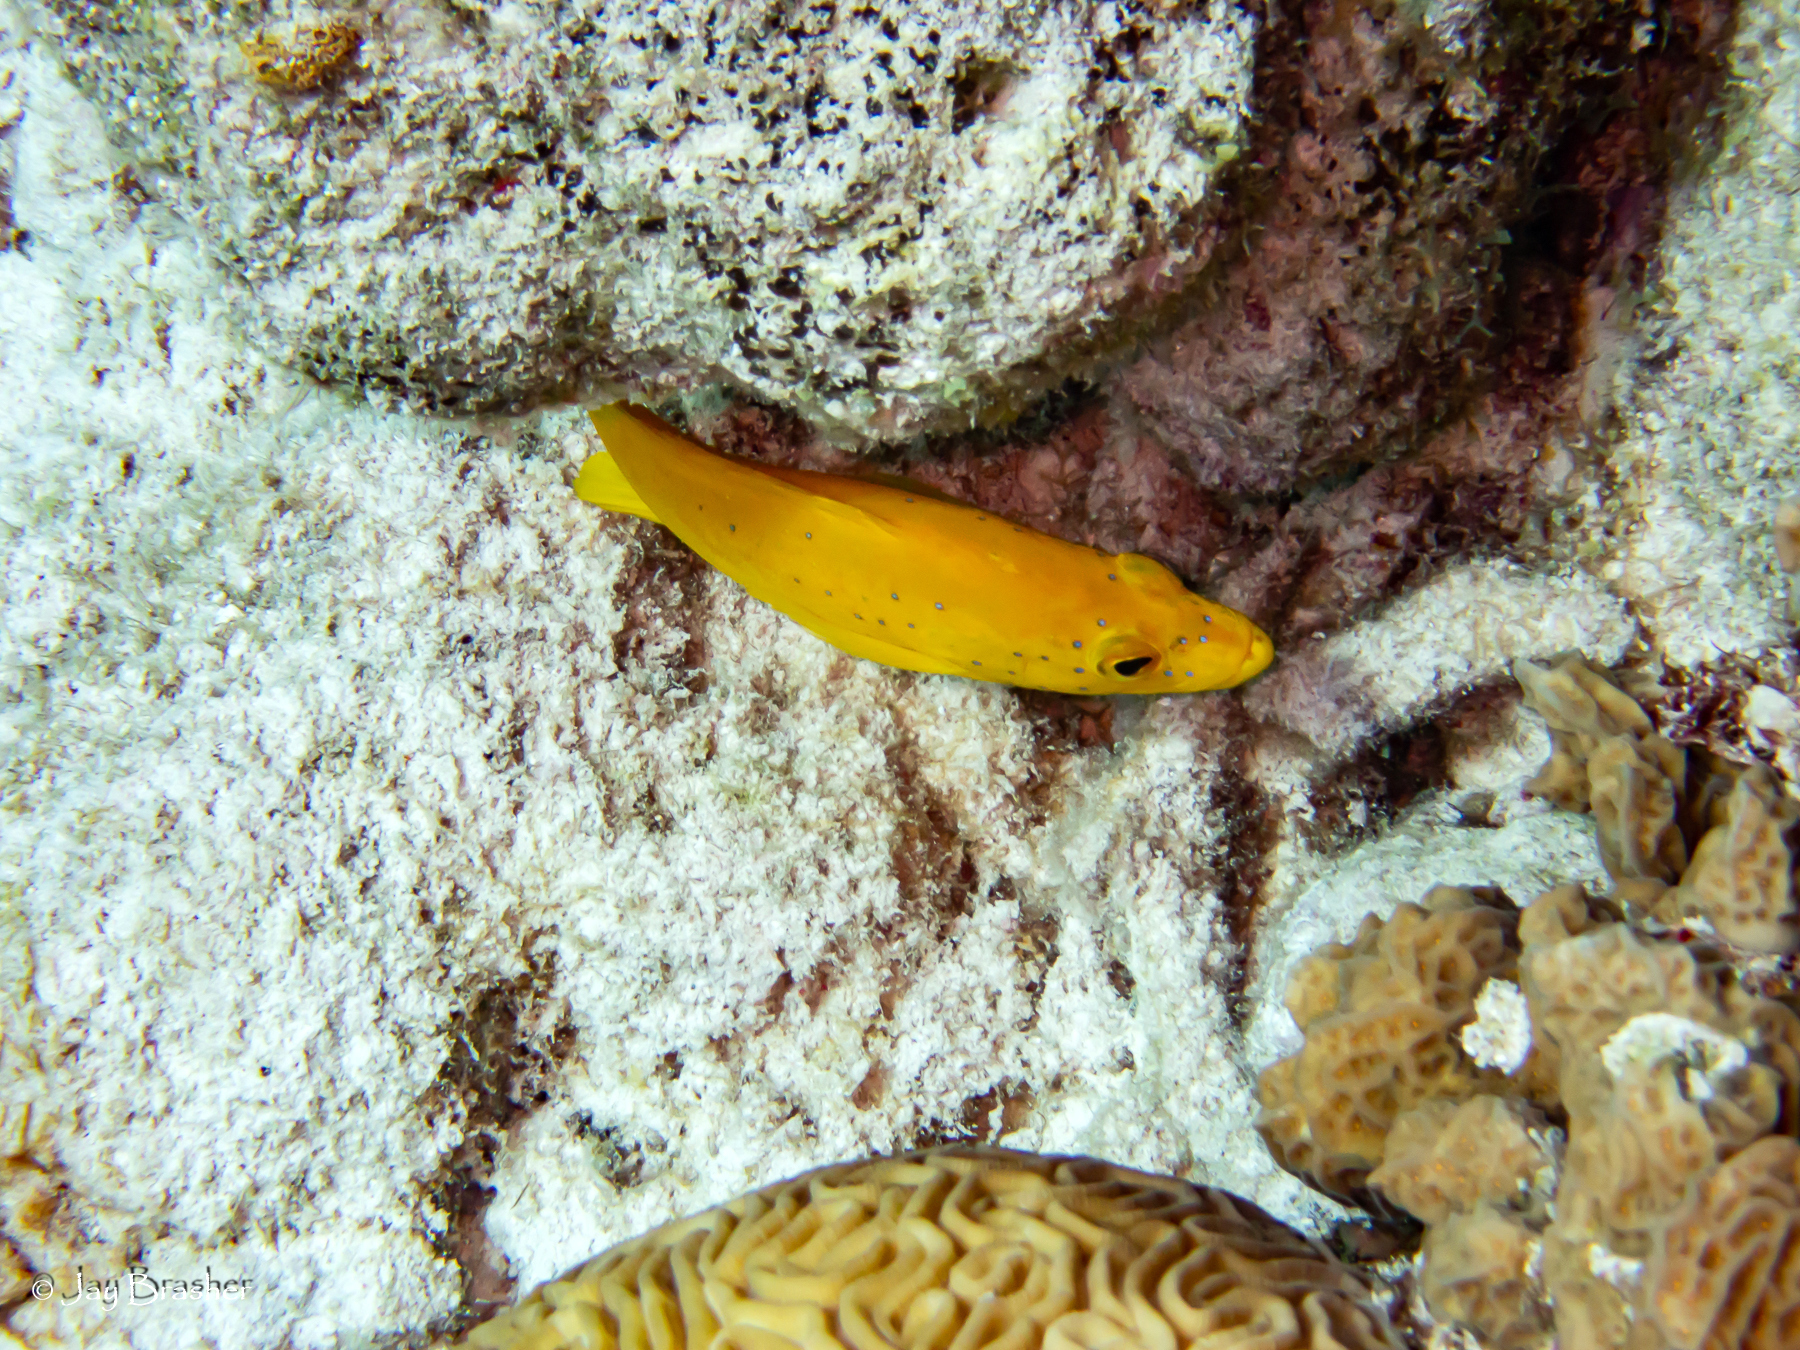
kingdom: Animalia
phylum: Cnidaria
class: Anthozoa
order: Scleractinia
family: Faviidae
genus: Diploria
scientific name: Diploria labyrinthiformis
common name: Grooved brain coral
